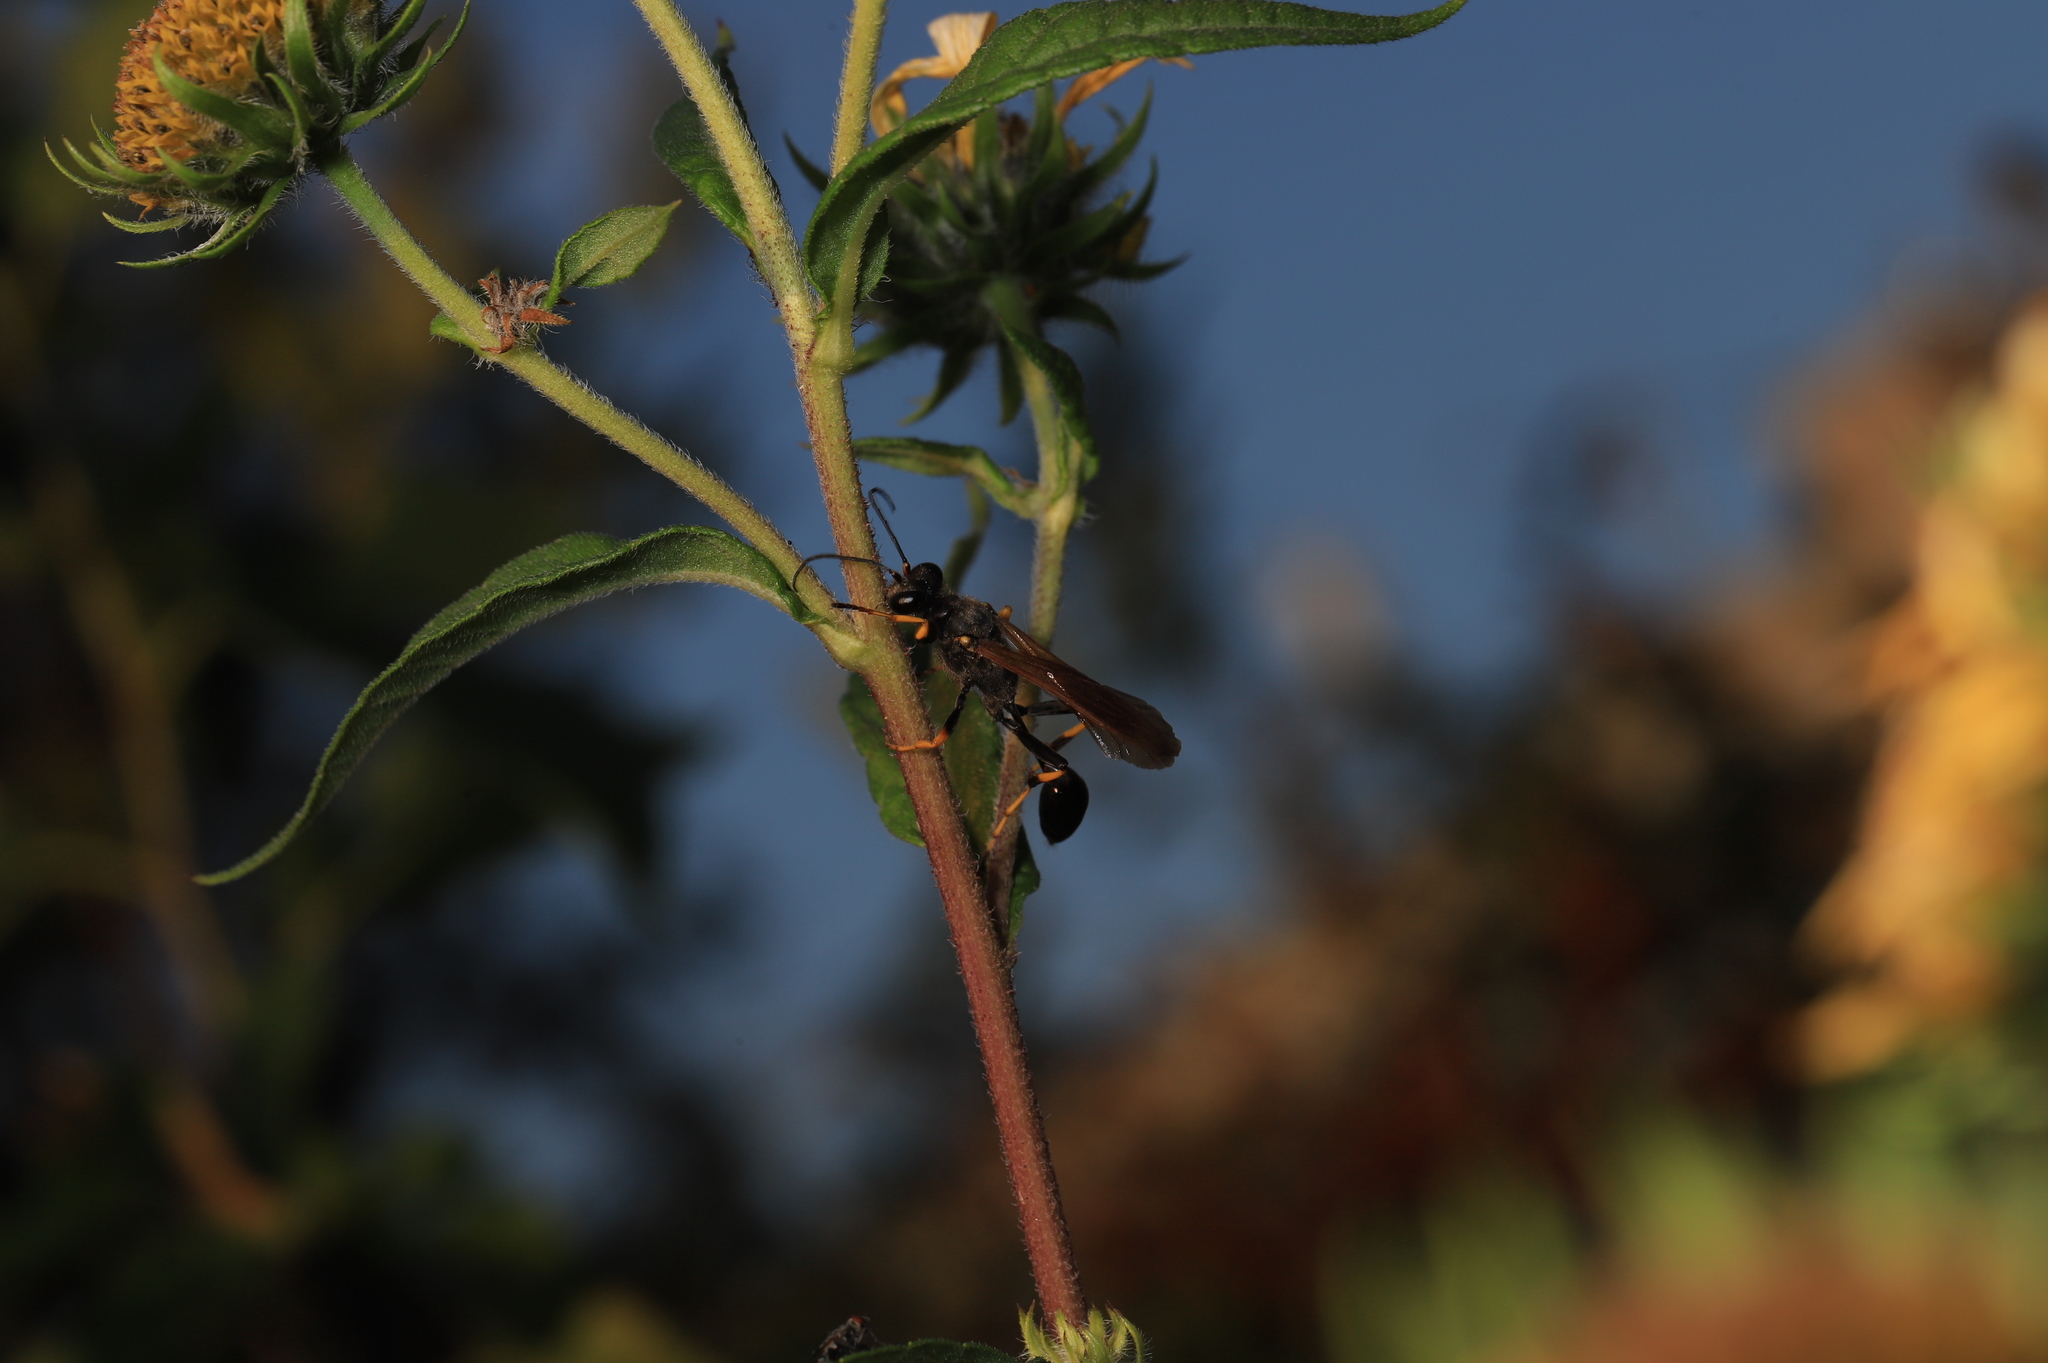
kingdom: Animalia
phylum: Arthropoda
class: Insecta
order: Hymenoptera
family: Sphecidae
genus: Sceliphron
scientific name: Sceliphron caementarium
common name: Mud dauber
